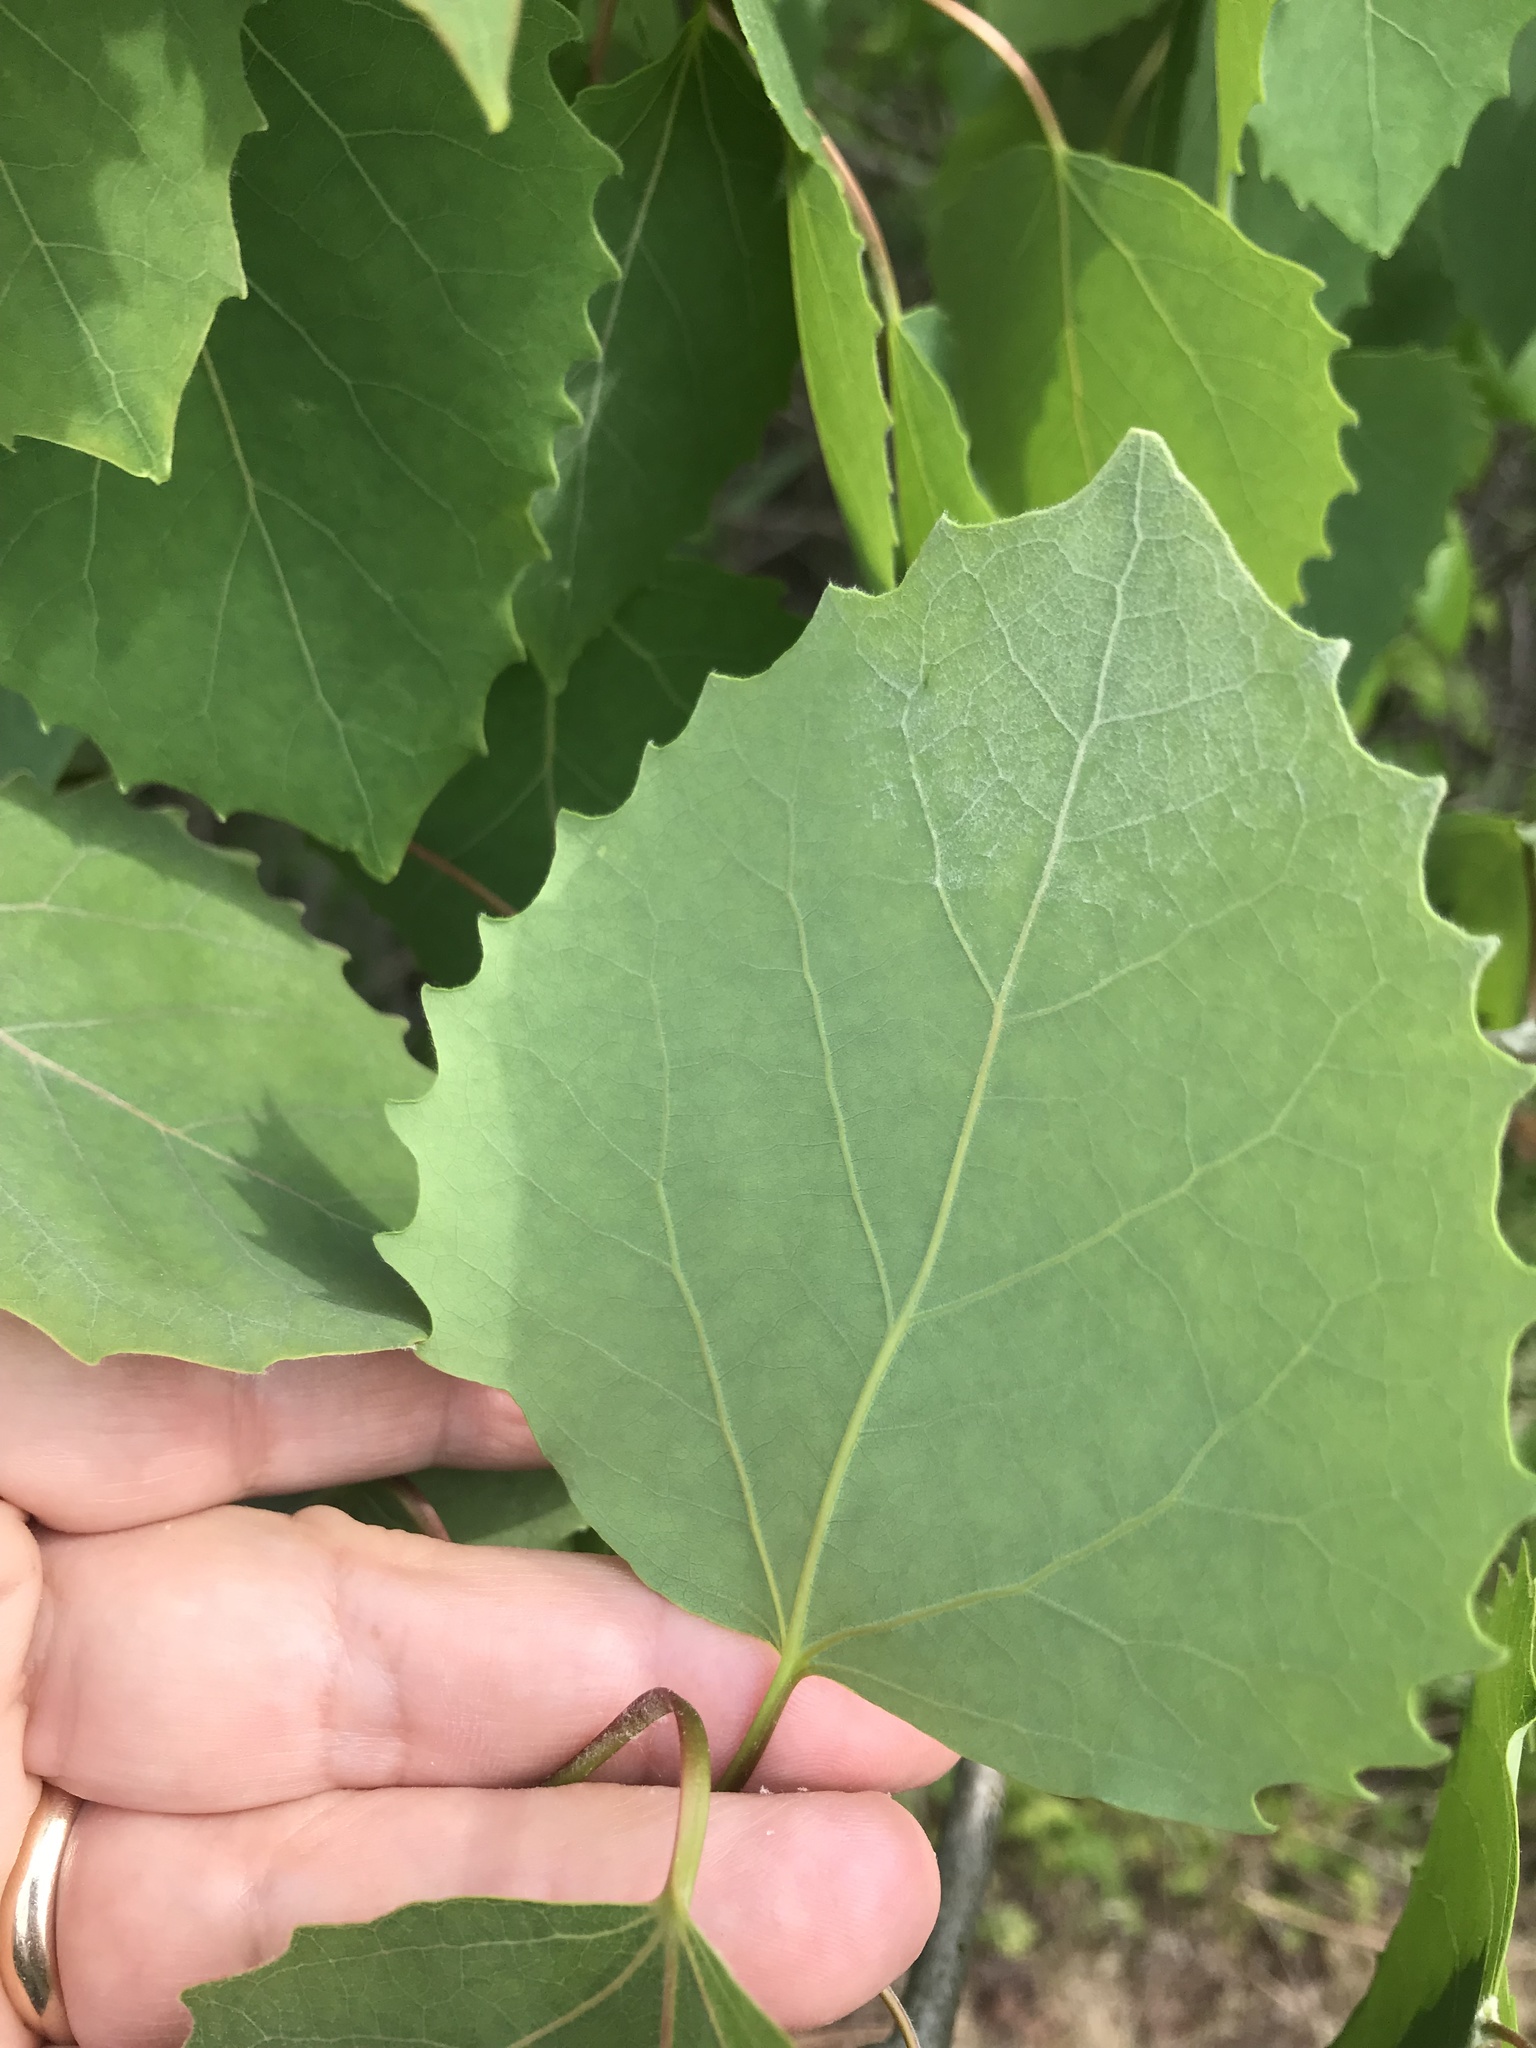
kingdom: Plantae
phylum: Tracheophyta
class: Magnoliopsida
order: Malpighiales
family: Salicaceae
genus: Populus
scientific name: Populus grandidentata
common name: Bigtooth aspen
